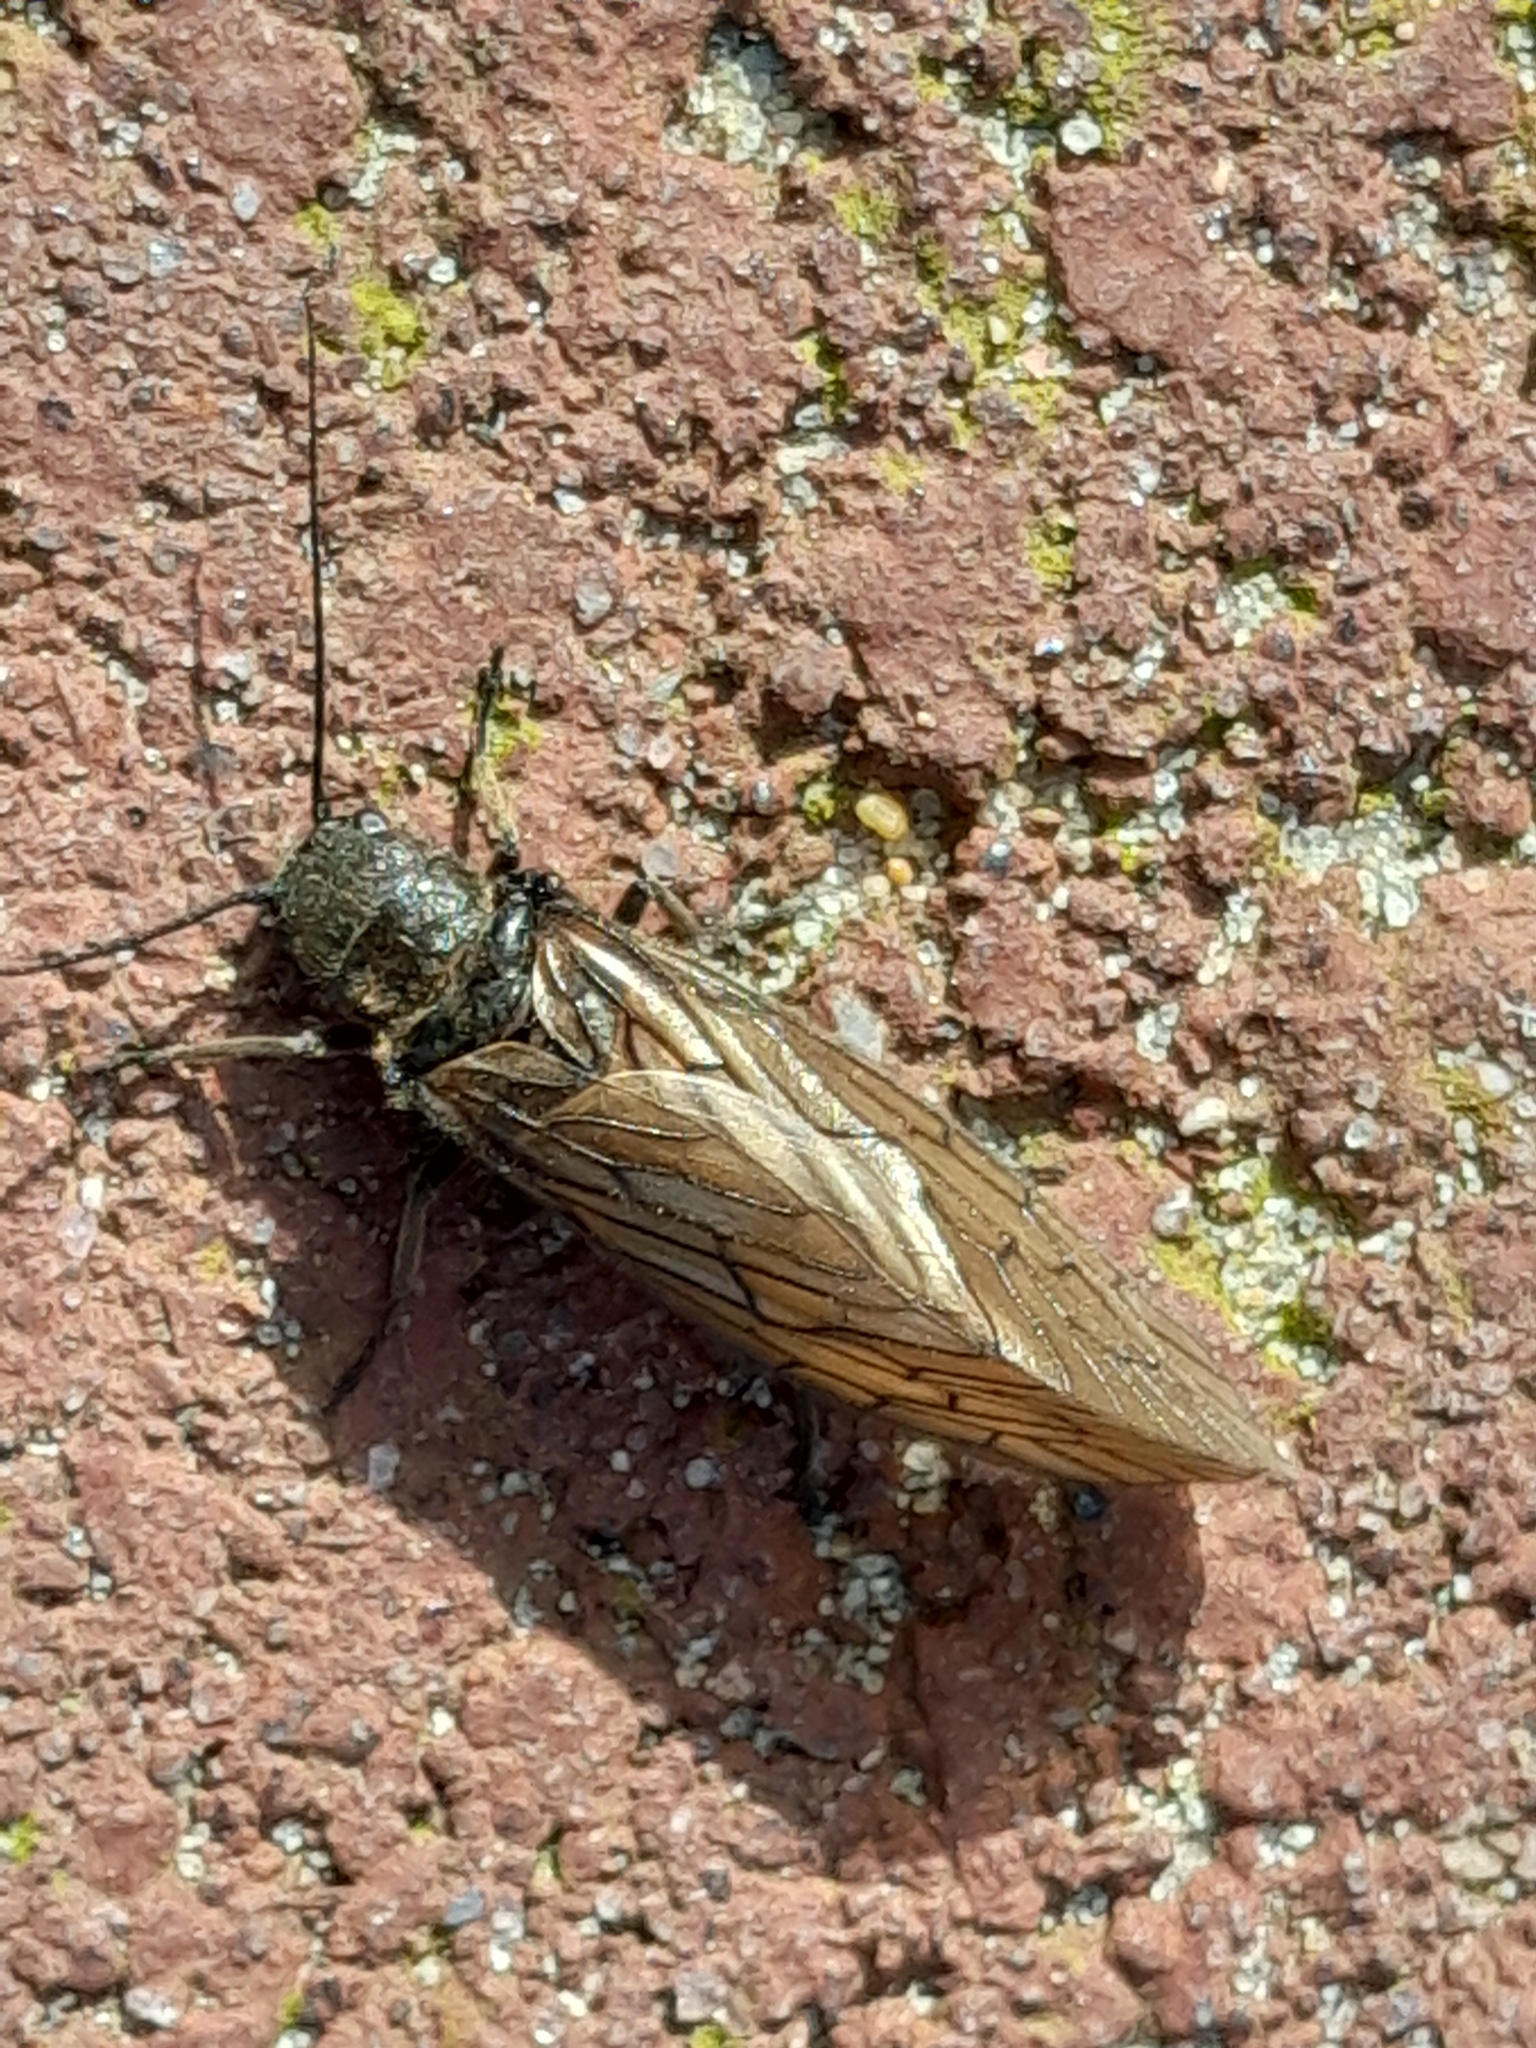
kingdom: Animalia
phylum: Arthropoda
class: Insecta
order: Megaloptera
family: Sialidae
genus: Sialis
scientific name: Sialis
